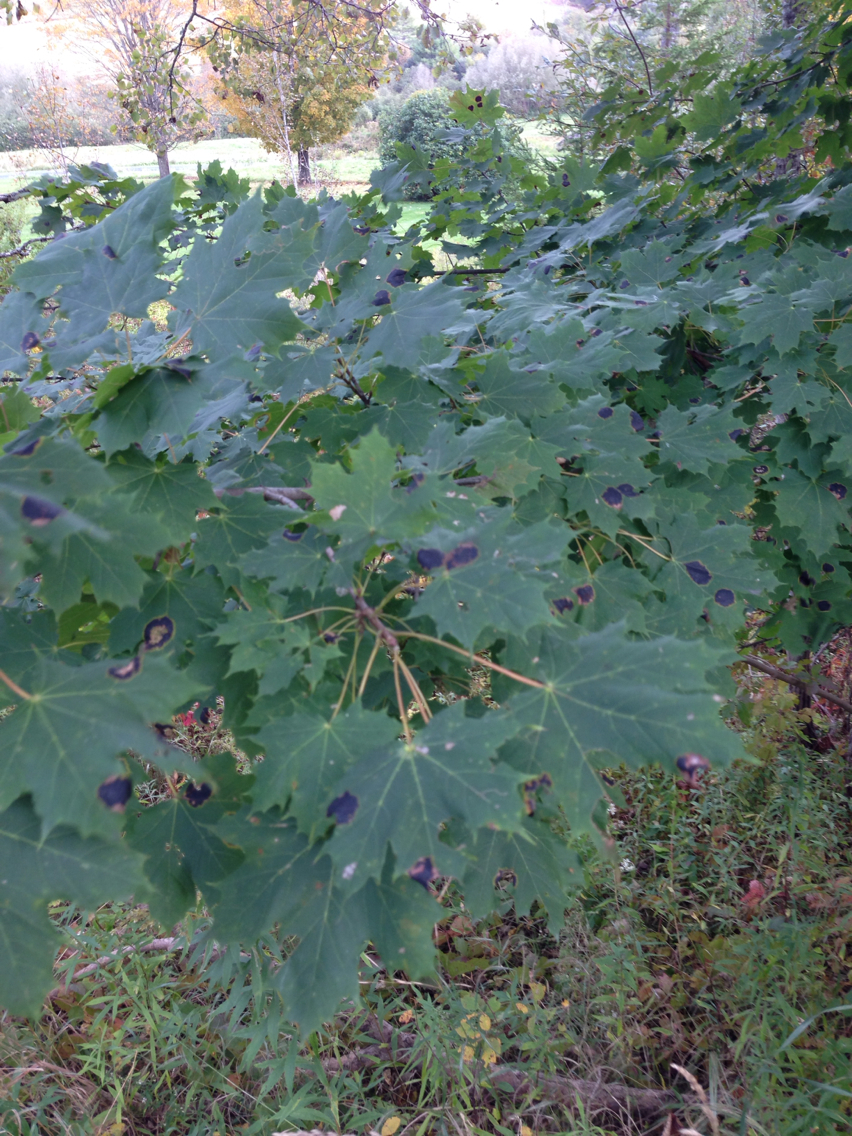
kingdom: Plantae
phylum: Tracheophyta
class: Magnoliopsida
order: Sapindales
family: Sapindaceae
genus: Acer
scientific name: Acer platanoides
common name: Norway maple
